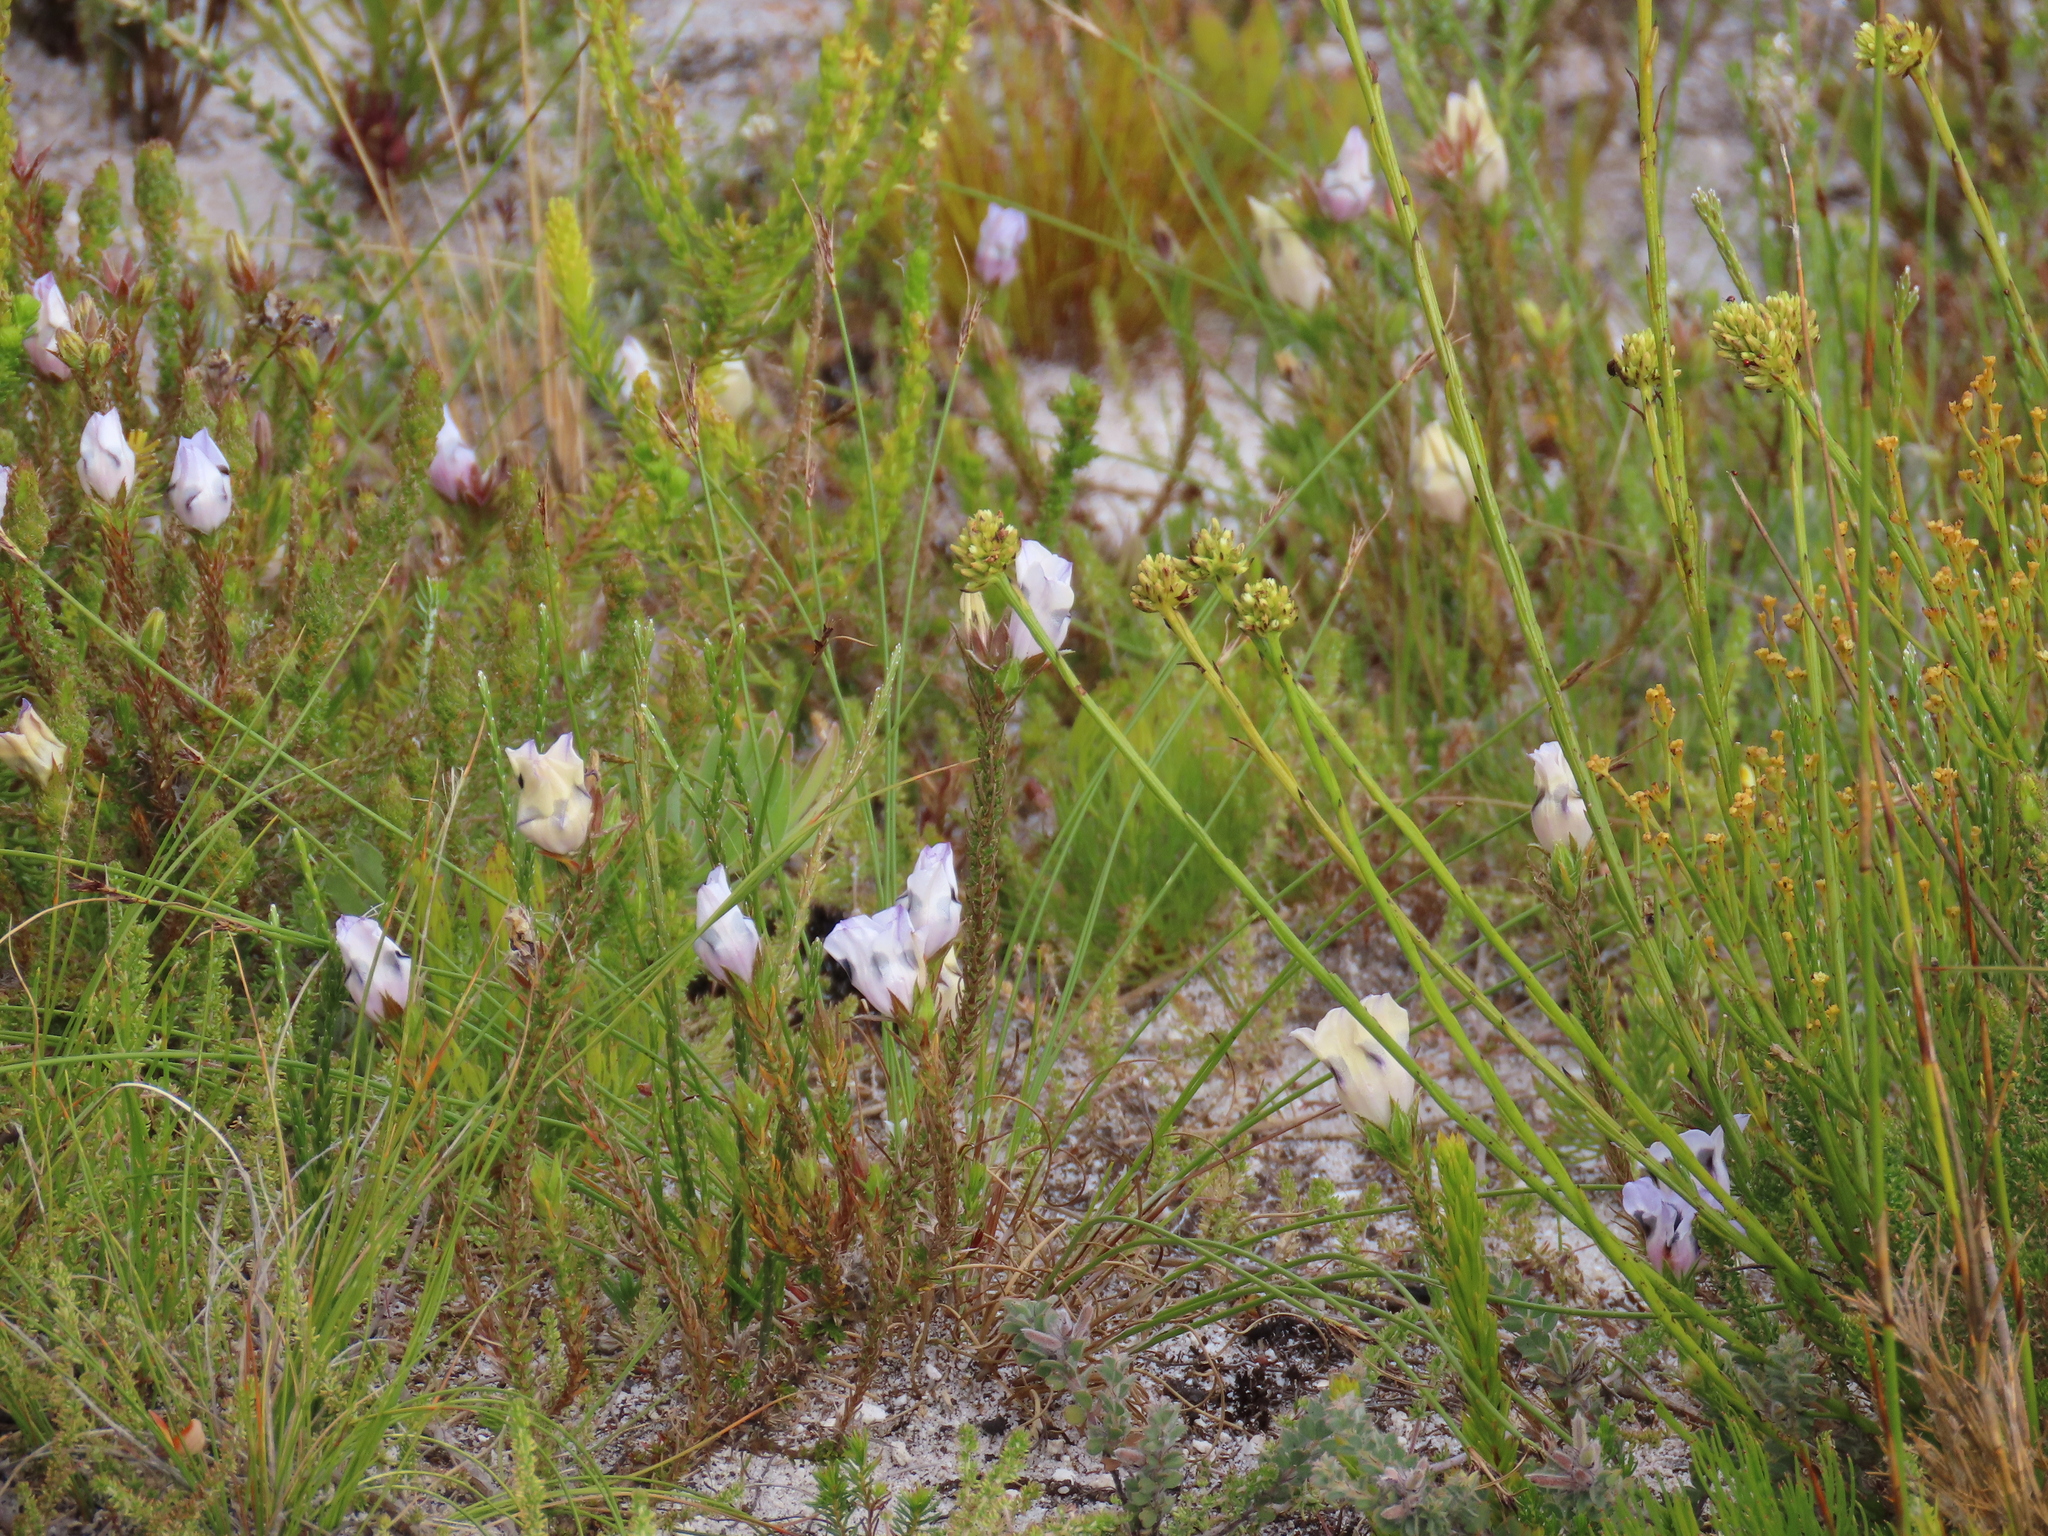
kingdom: Plantae
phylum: Tracheophyta
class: Magnoliopsida
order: Asterales
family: Campanulaceae
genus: Roella
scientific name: Roella maculata
